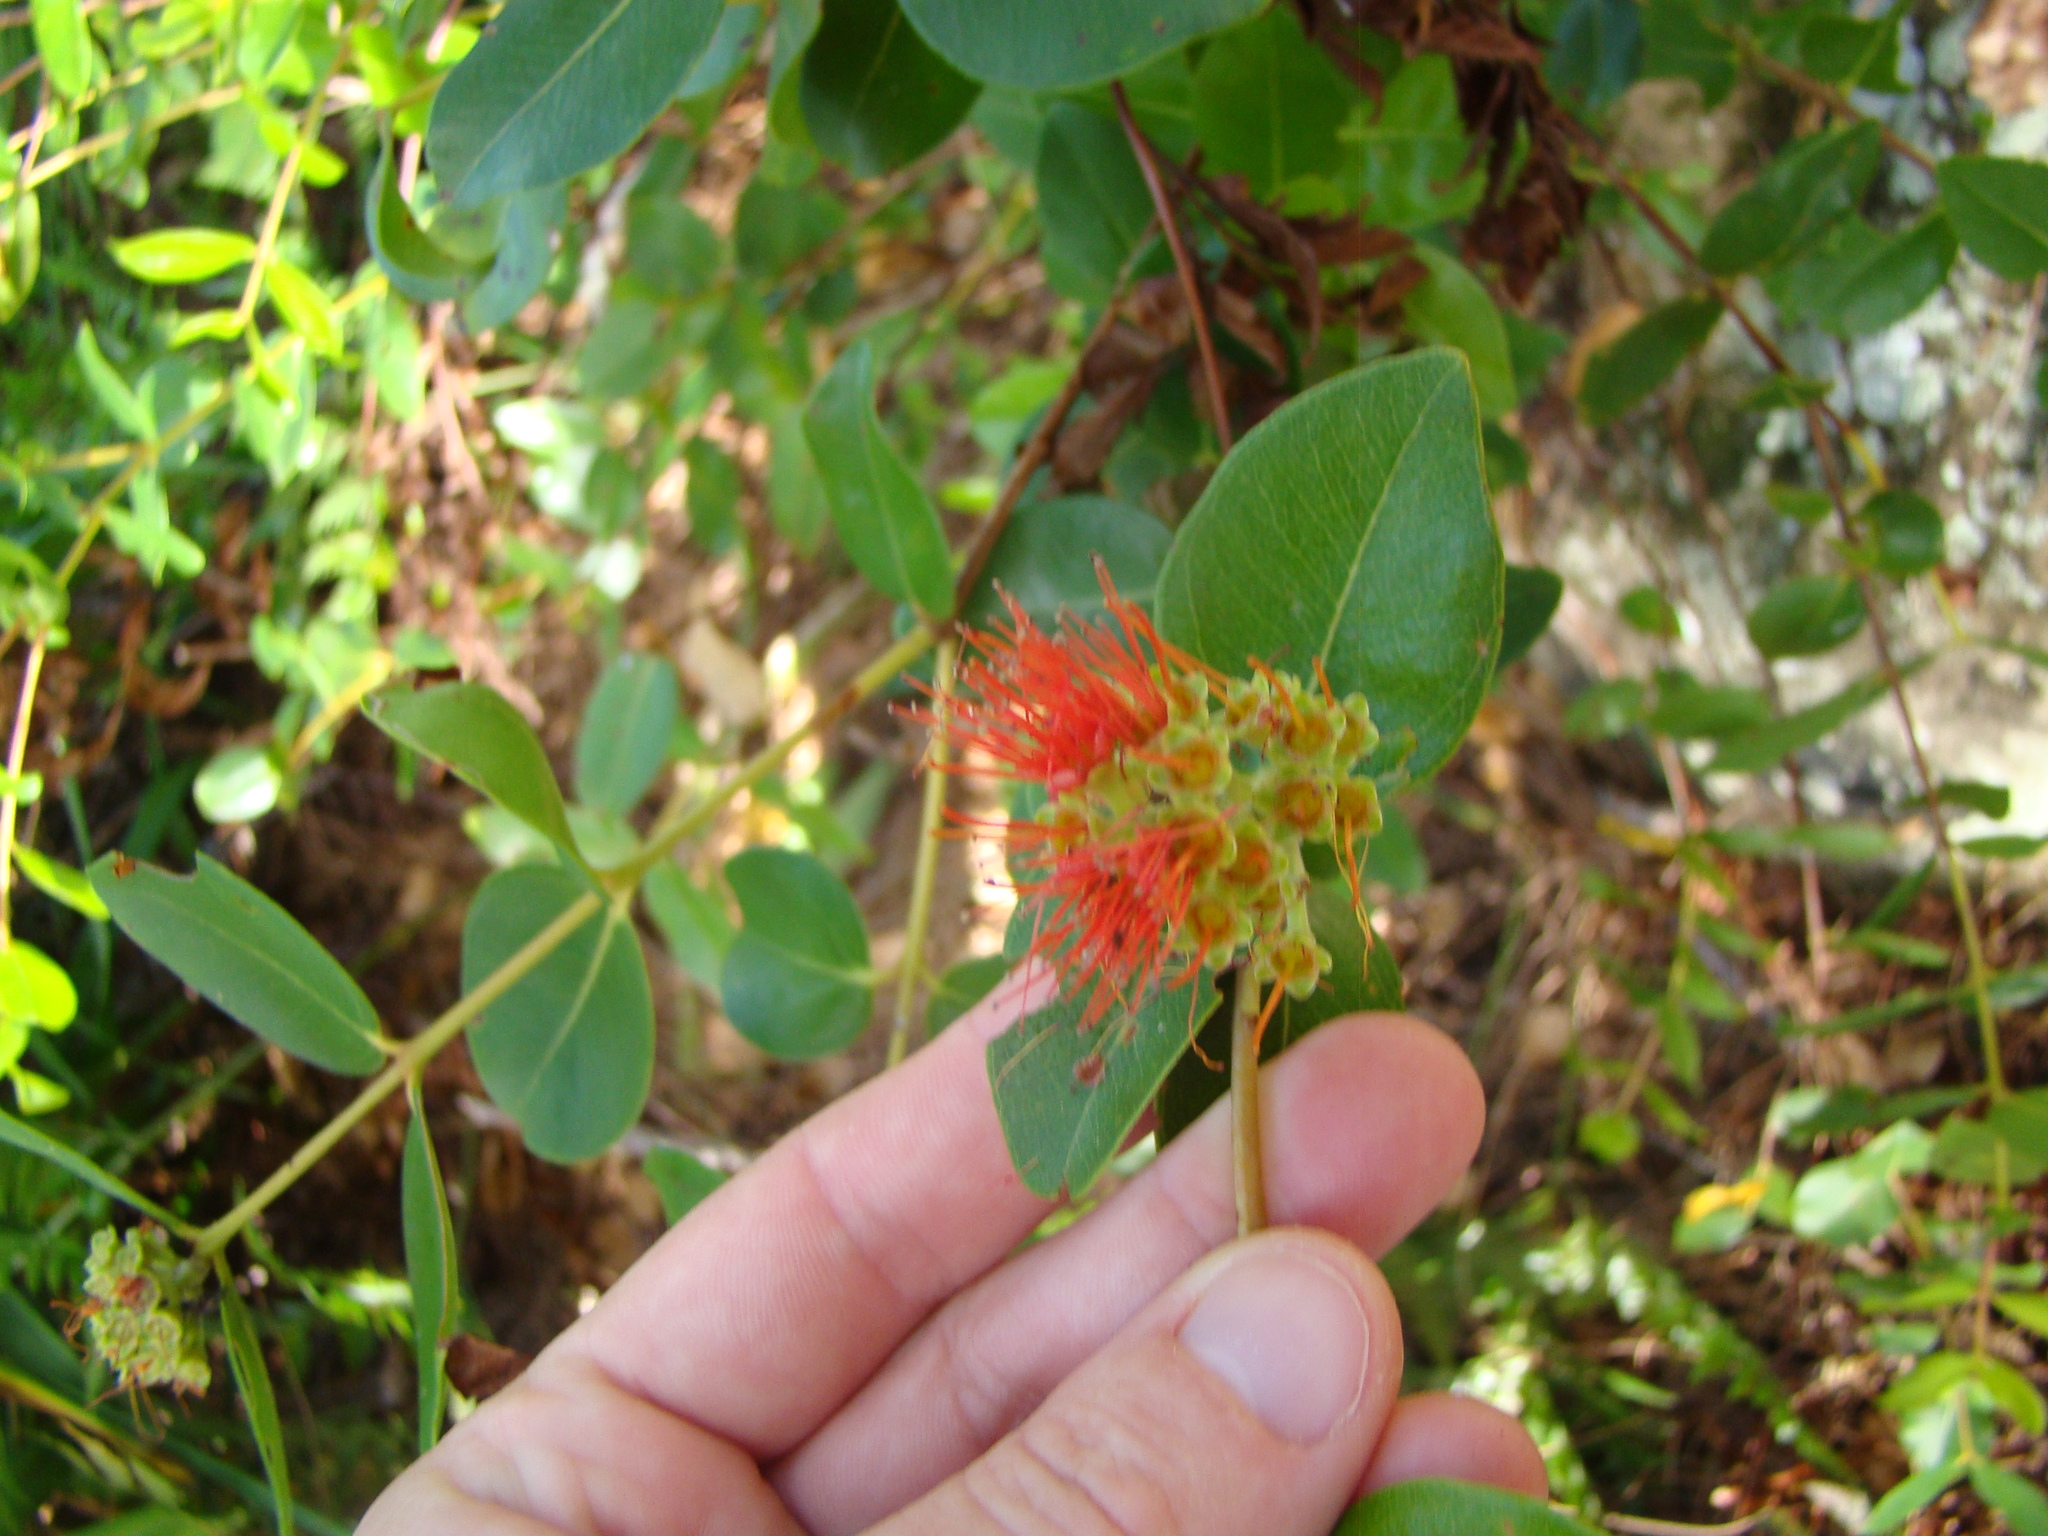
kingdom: Plantae
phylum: Tracheophyta
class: Magnoliopsida
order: Myrtales
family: Myrtaceae
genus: Metrosideros
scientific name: Metrosideros collina
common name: Vunga
